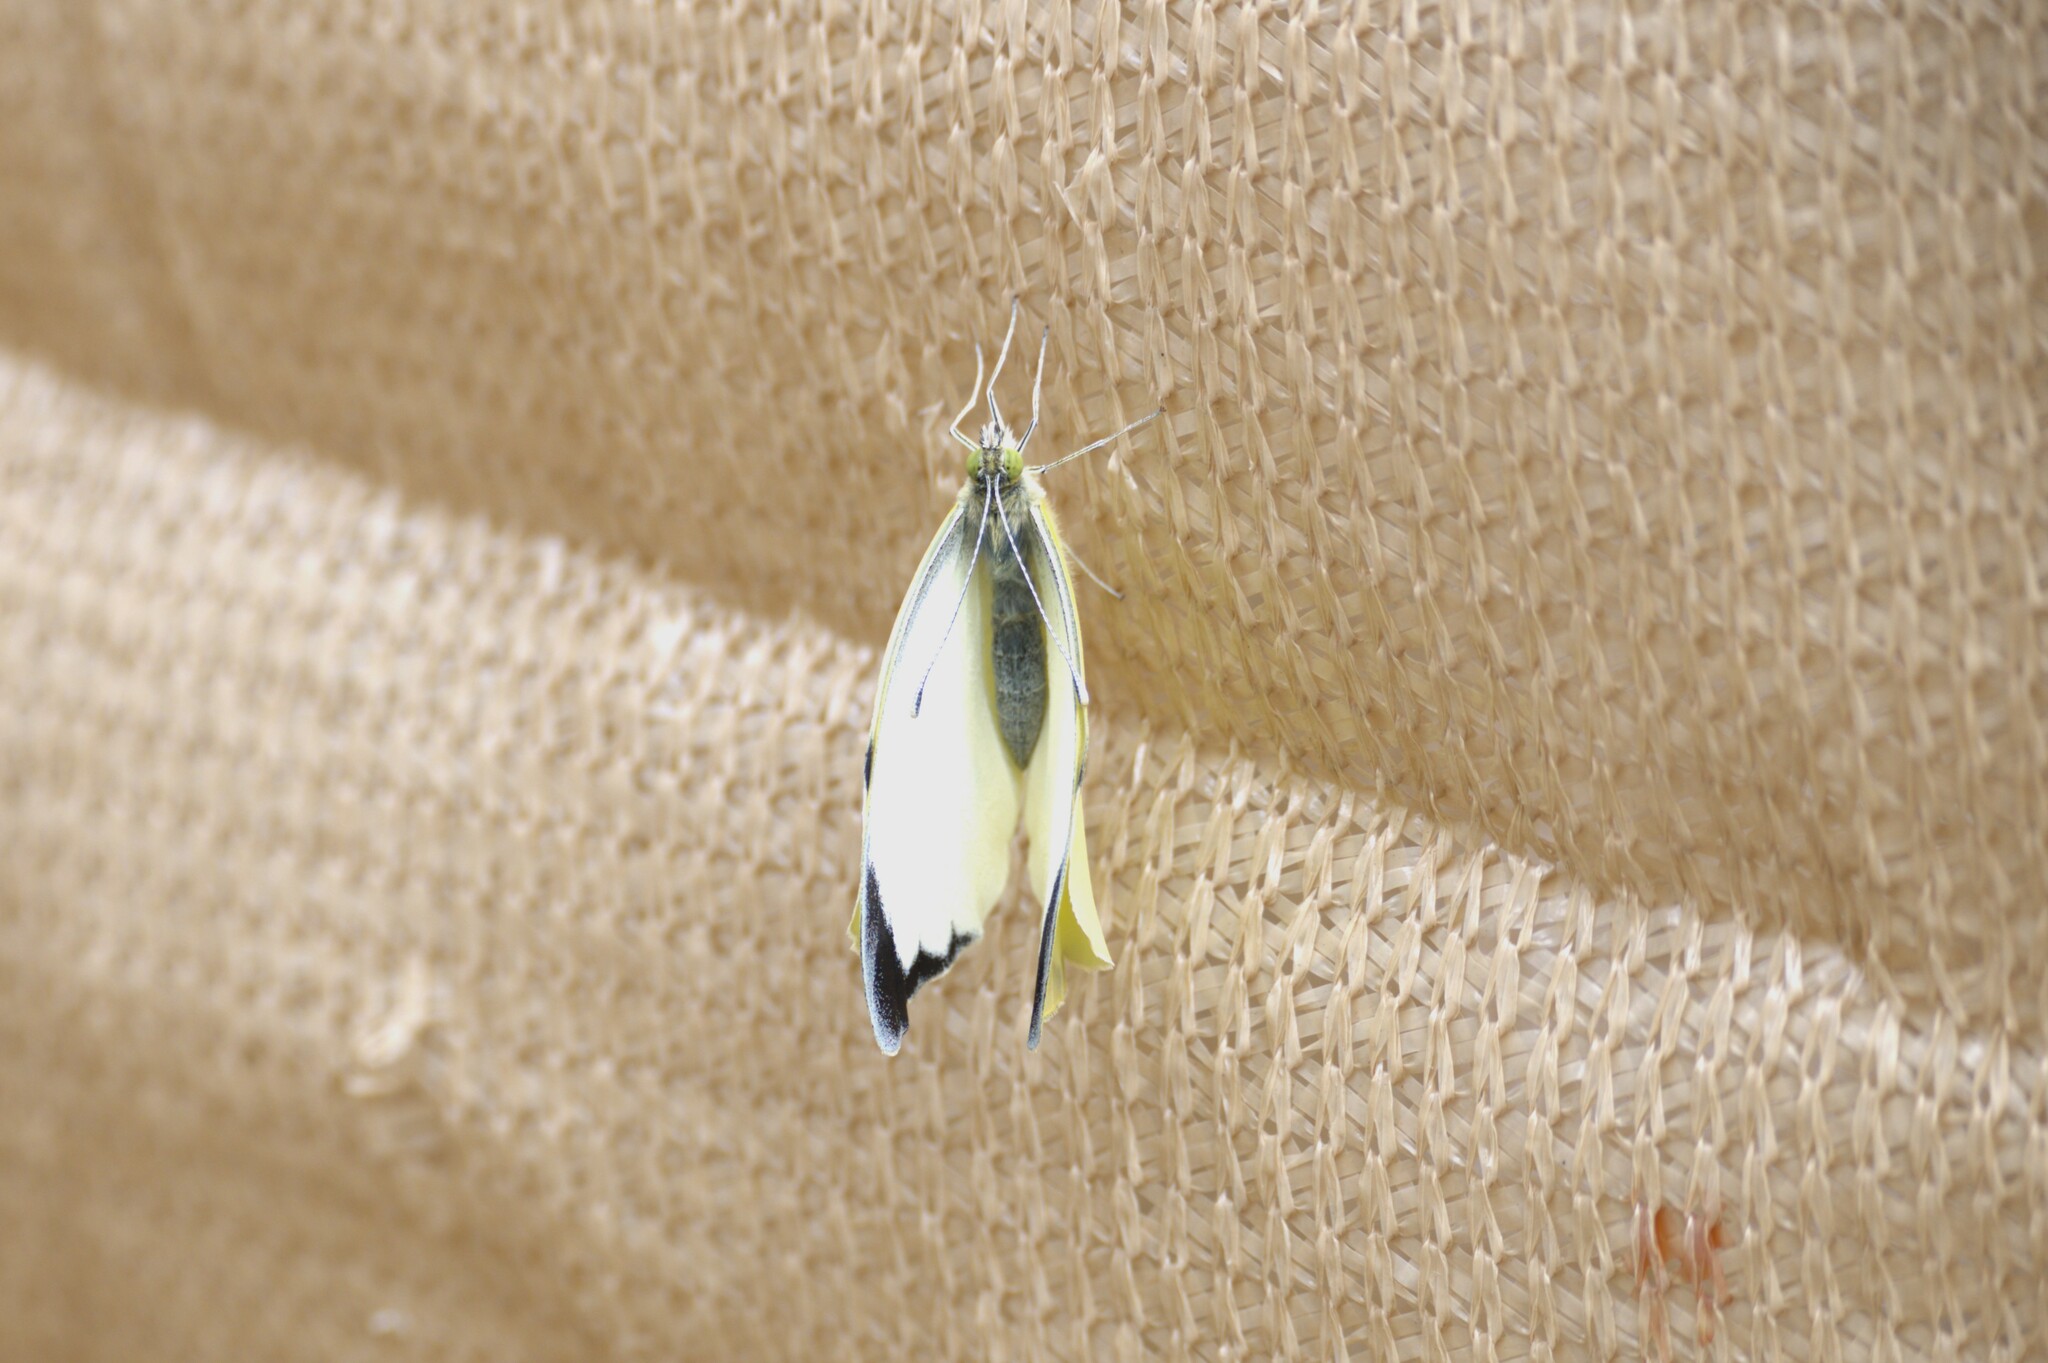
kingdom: Animalia
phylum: Arthropoda
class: Insecta
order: Lepidoptera
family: Pieridae
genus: Pieris
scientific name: Pieris brassicae
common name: Large white
